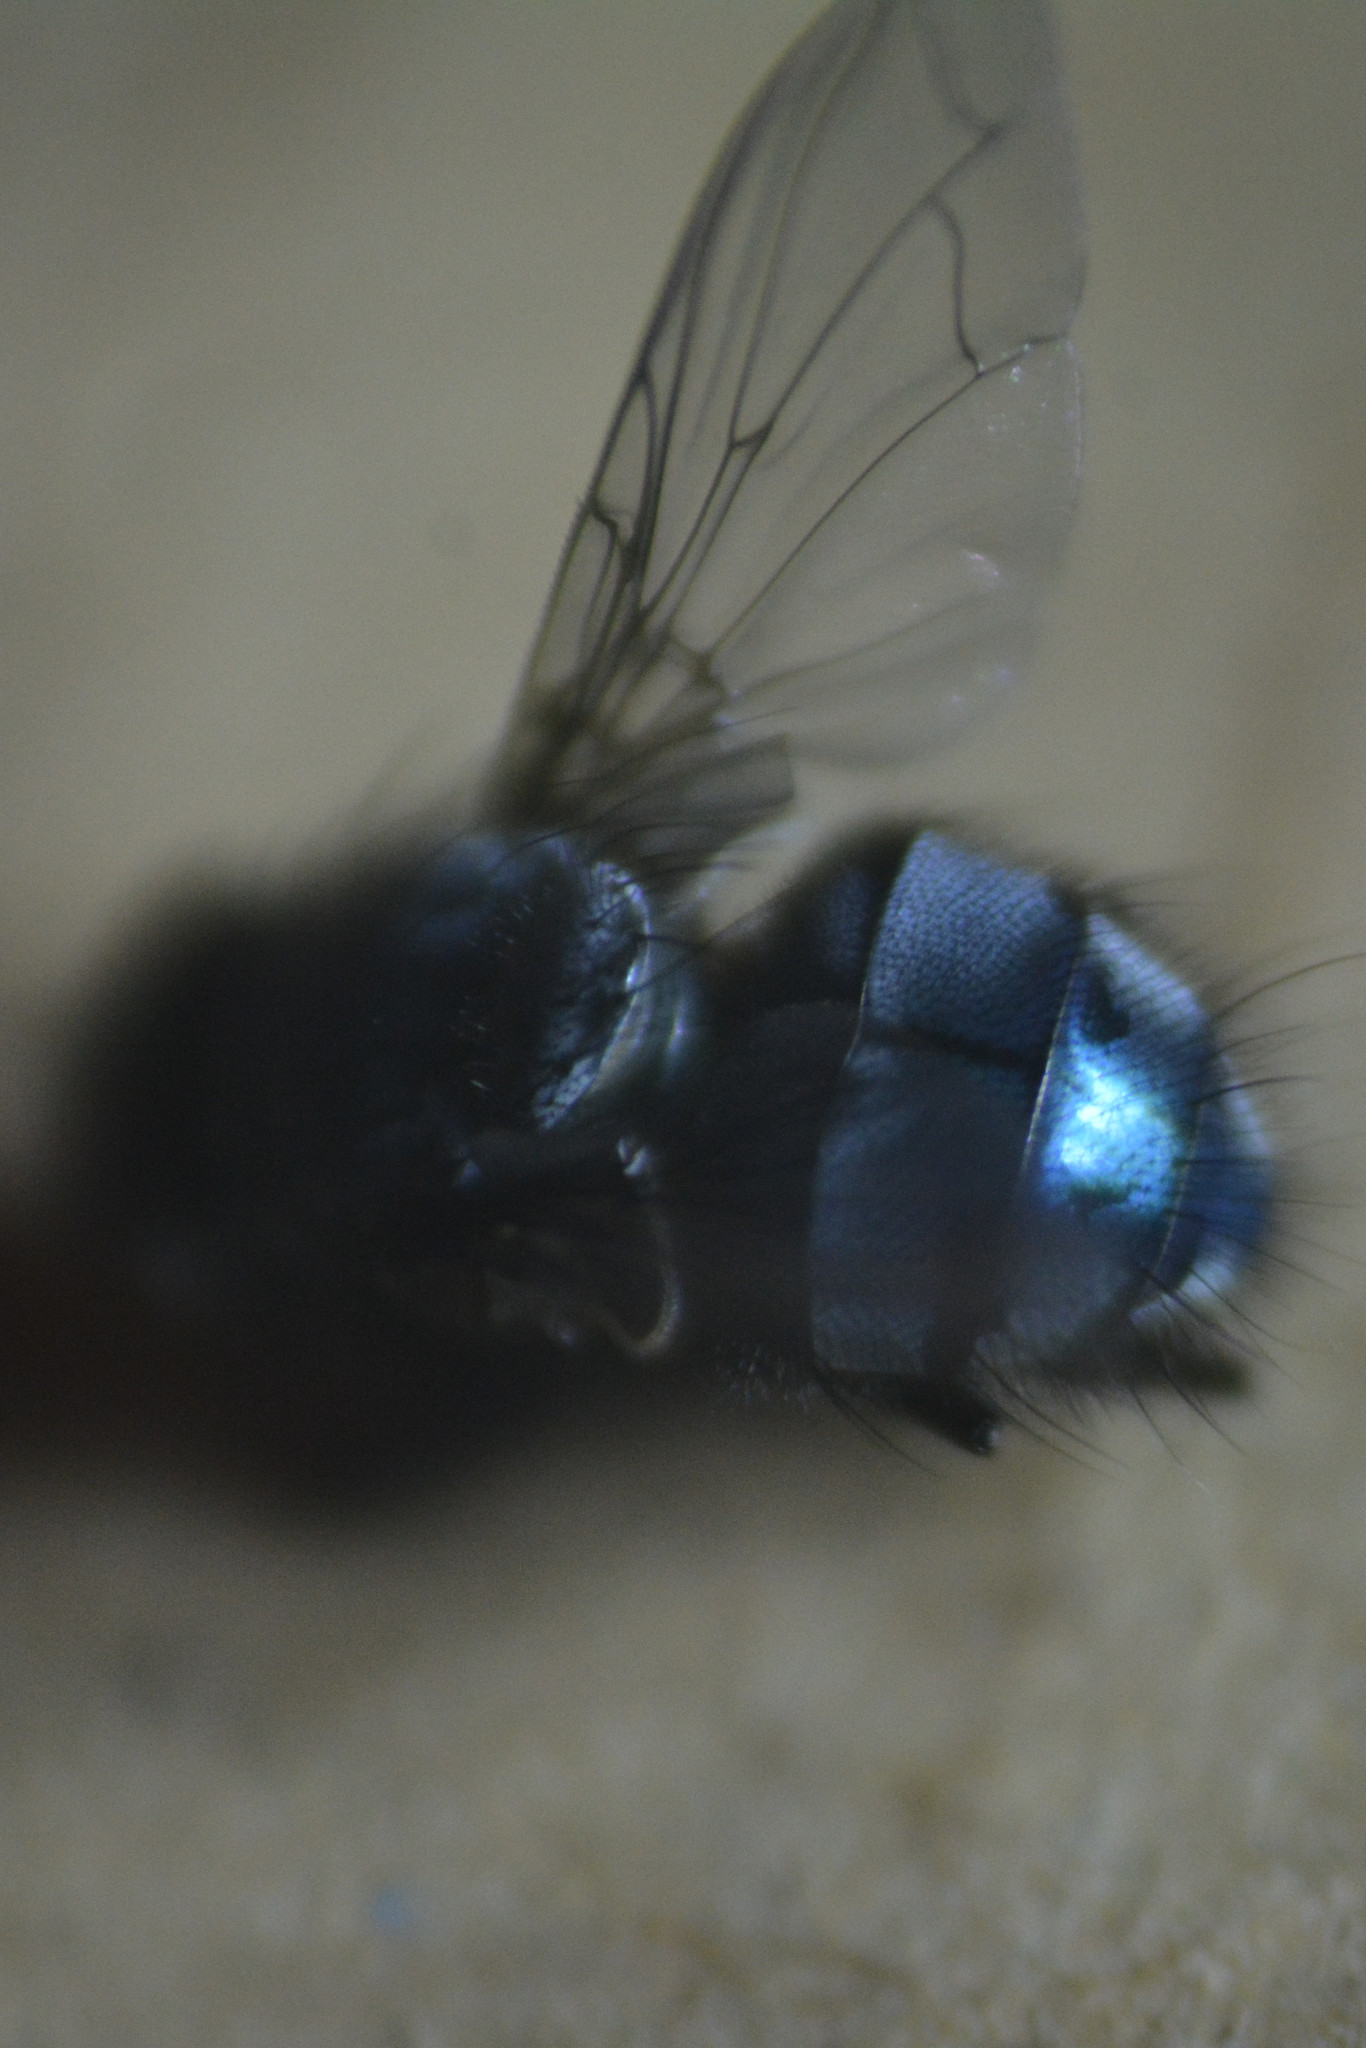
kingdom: Animalia
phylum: Arthropoda
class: Insecta
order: Diptera
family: Calliphoridae
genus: Calliphora
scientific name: Calliphora vicina
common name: Common blow flie
